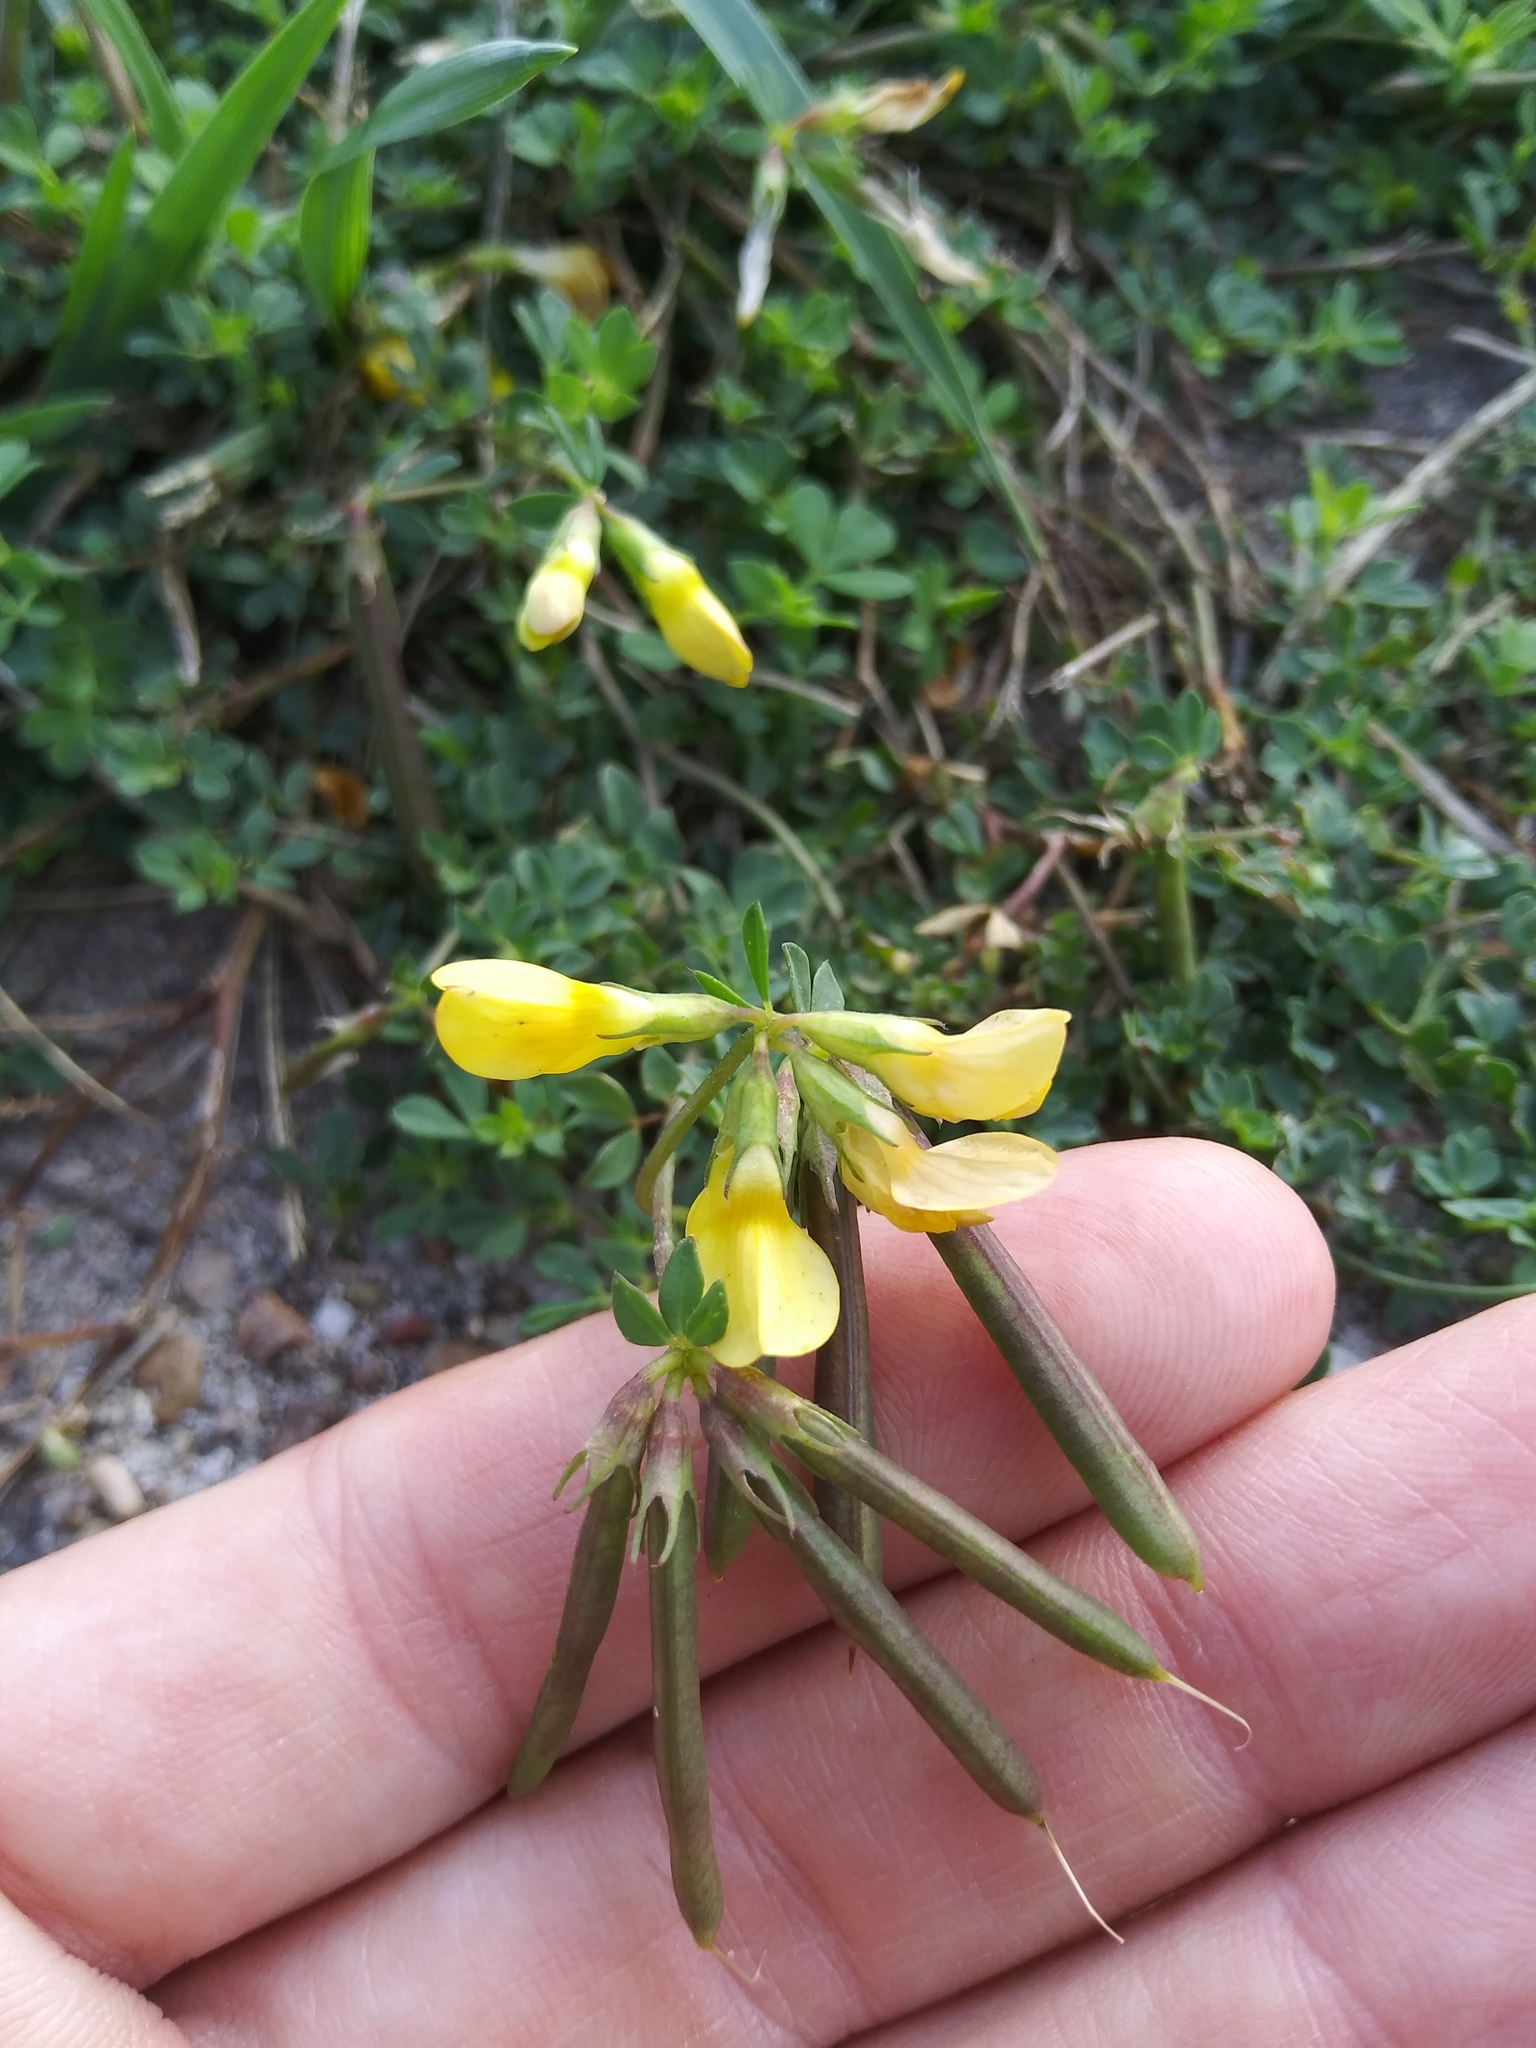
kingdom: Plantae
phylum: Tracheophyta
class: Magnoliopsida
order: Fabales
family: Fabaceae
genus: Lotus
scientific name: Lotus corniculatus
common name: Common bird's-foot-trefoil
